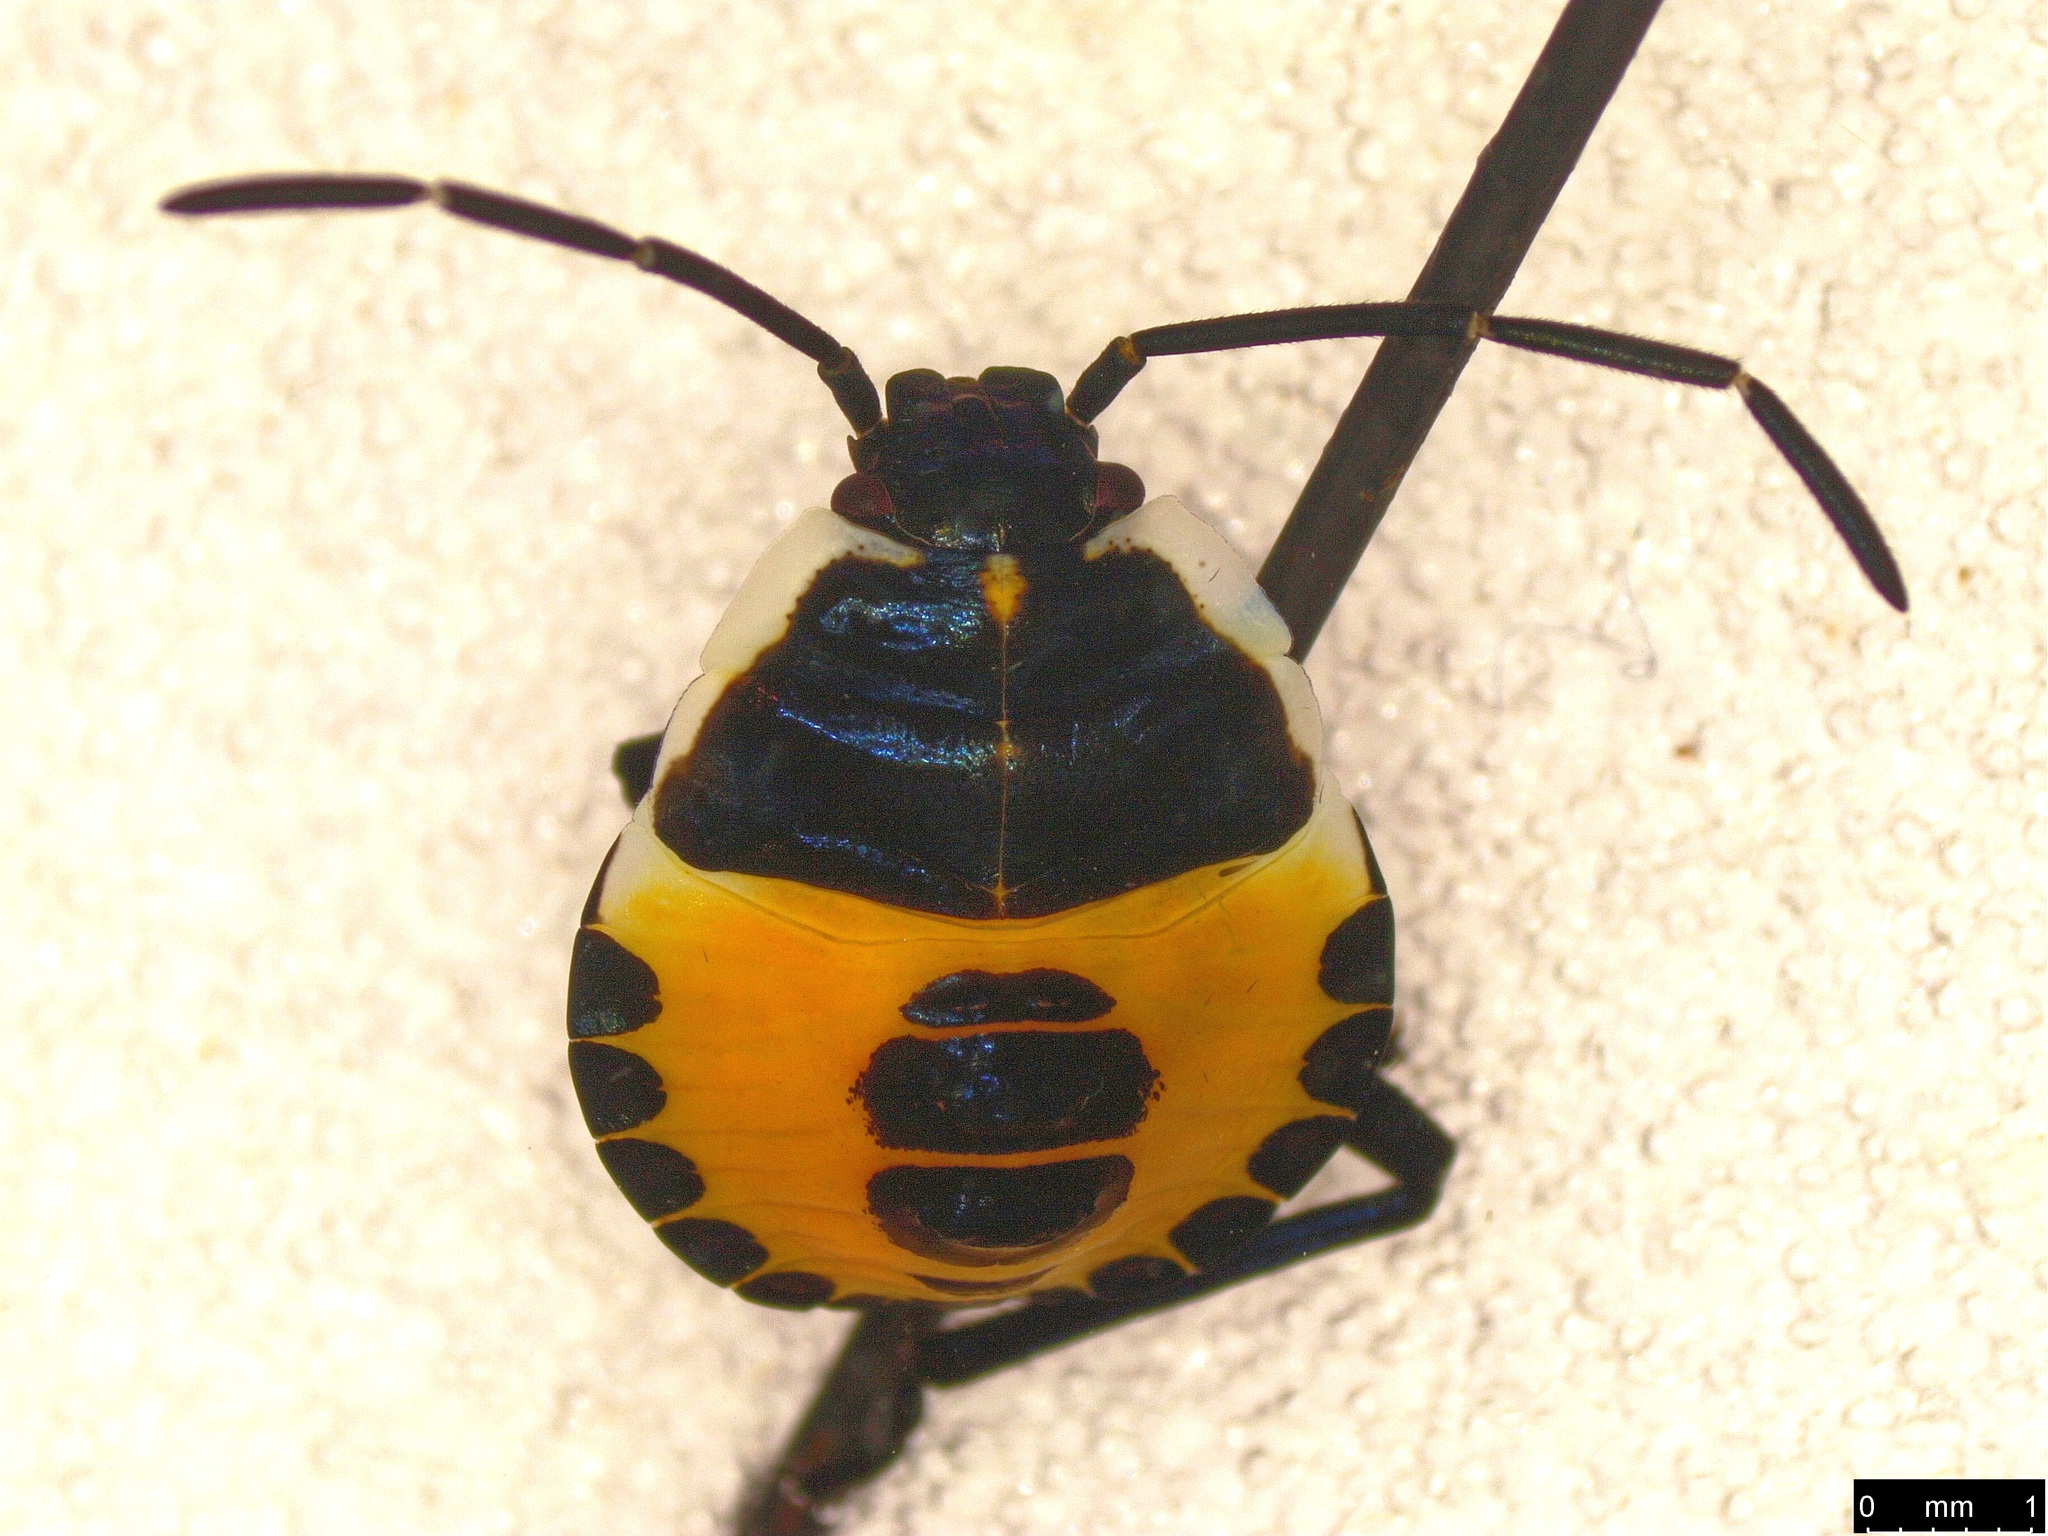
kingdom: Animalia
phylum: Arthropoda
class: Insecta
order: Hemiptera
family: Pentatomidae
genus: Commius
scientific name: Commius
